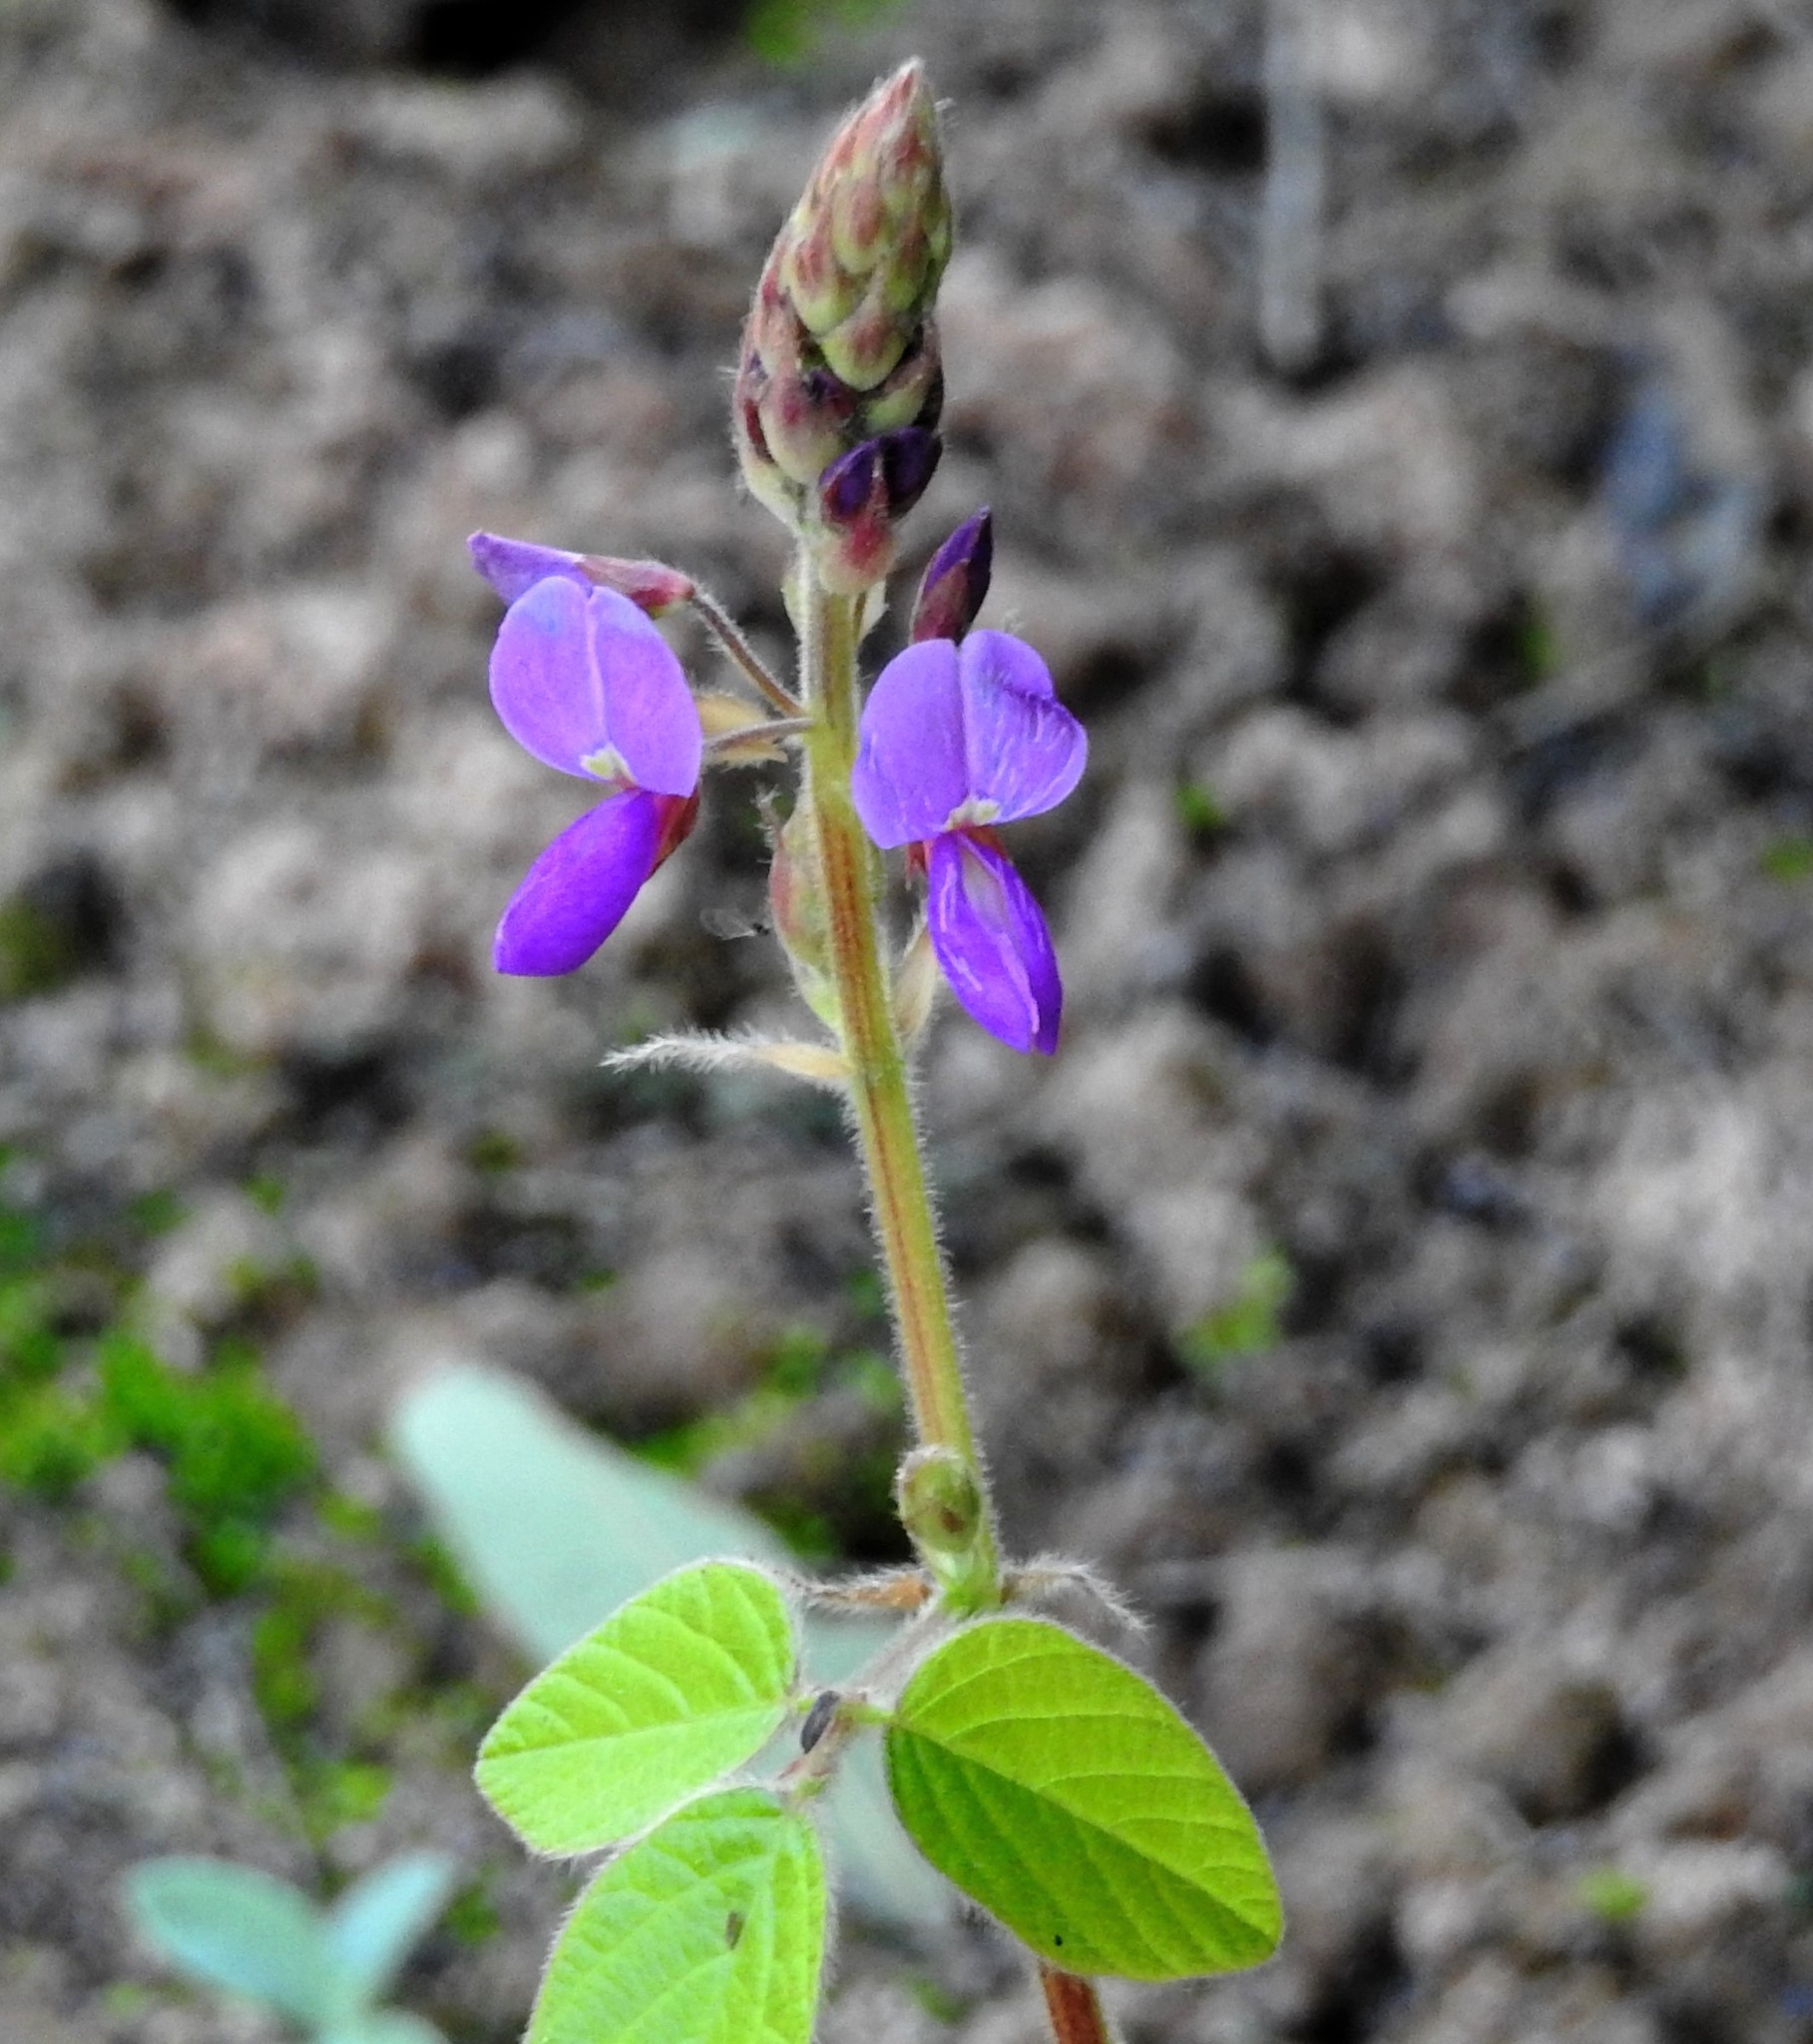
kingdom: Plantae
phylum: Tracheophyta
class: Magnoliopsida
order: Fabales
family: Fabaceae
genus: Desmodium
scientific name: Desmodium subsericeum
